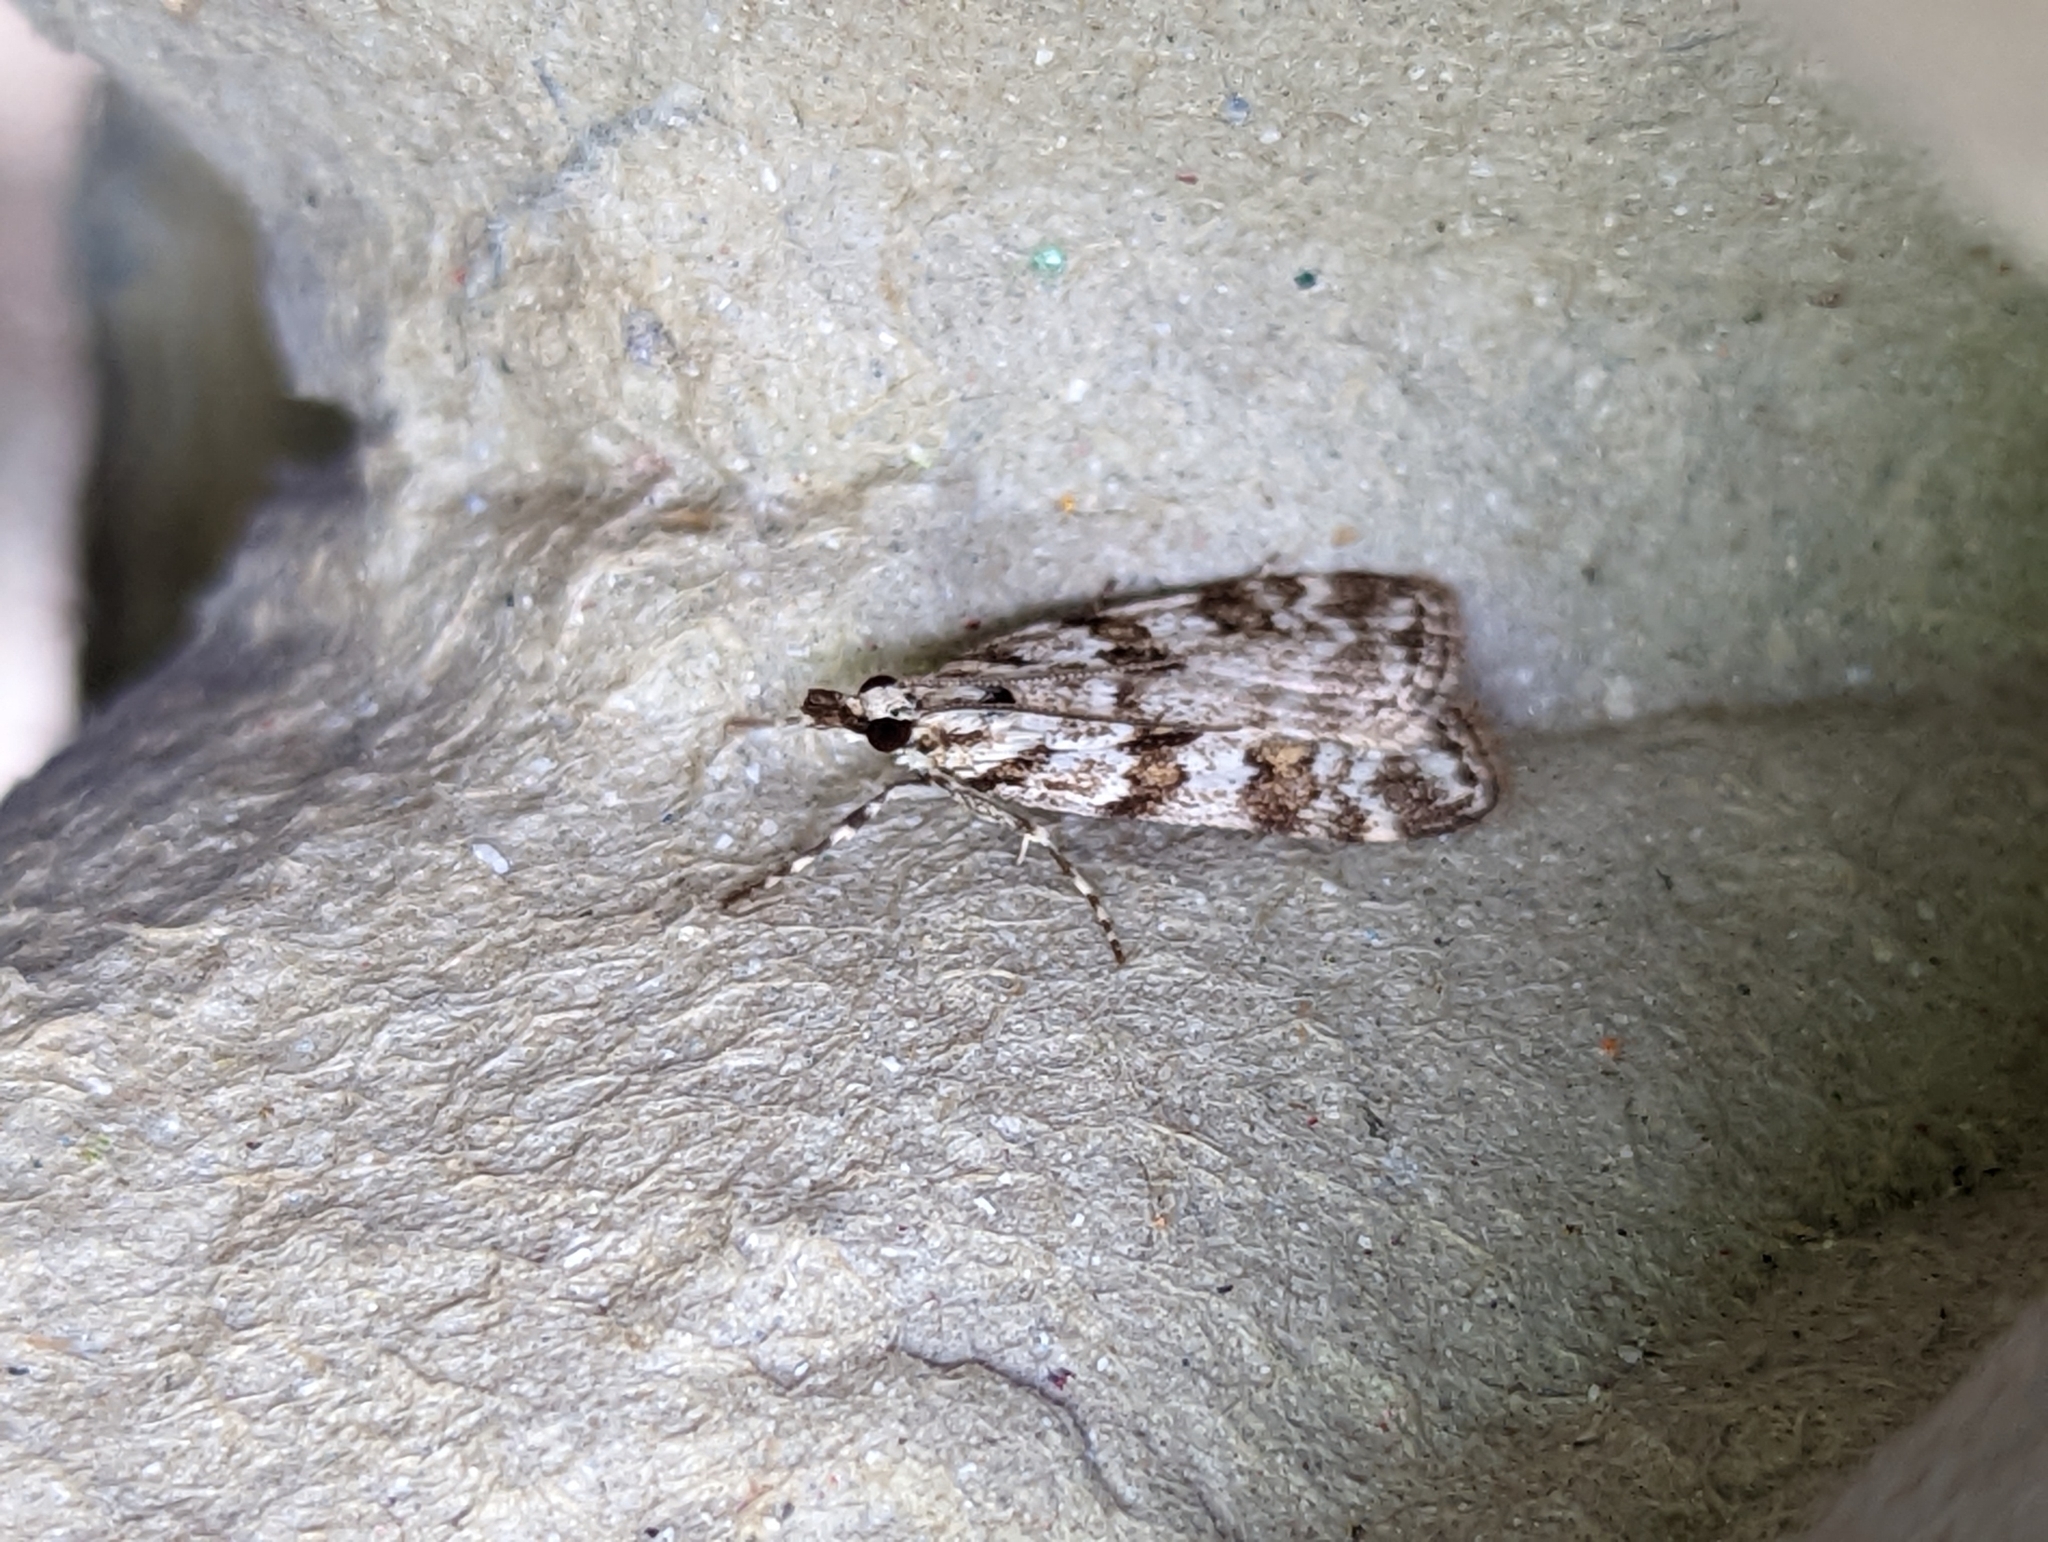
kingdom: Animalia
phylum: Arthropoda
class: Insecta
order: Lepidoptera
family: Crambidae
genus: Scoparia
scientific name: Scoparia pyralella
